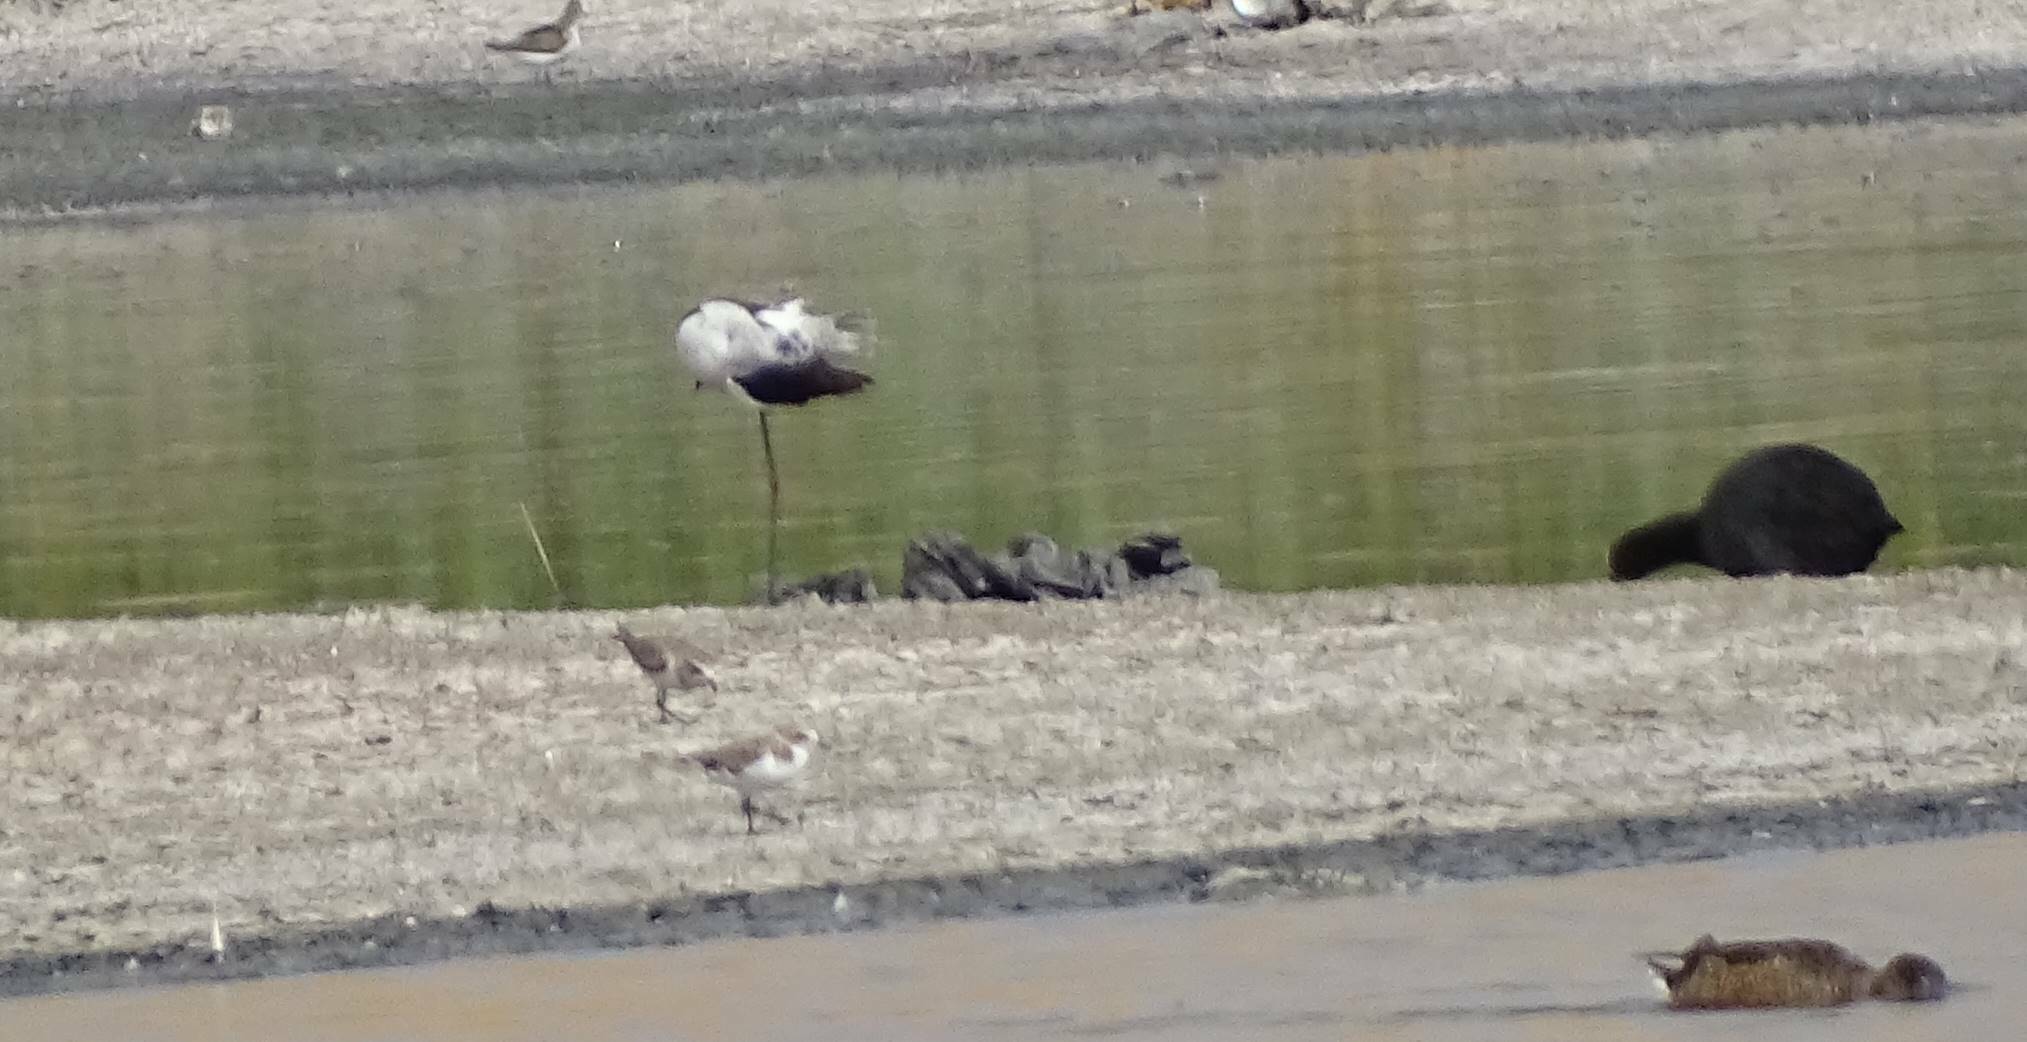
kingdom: Animalia
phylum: Chordata
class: Aves
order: Charadriiformes
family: Recurvirostridae
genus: Himantopus
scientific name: Himantopus himantopus
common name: Black-winged stilt
